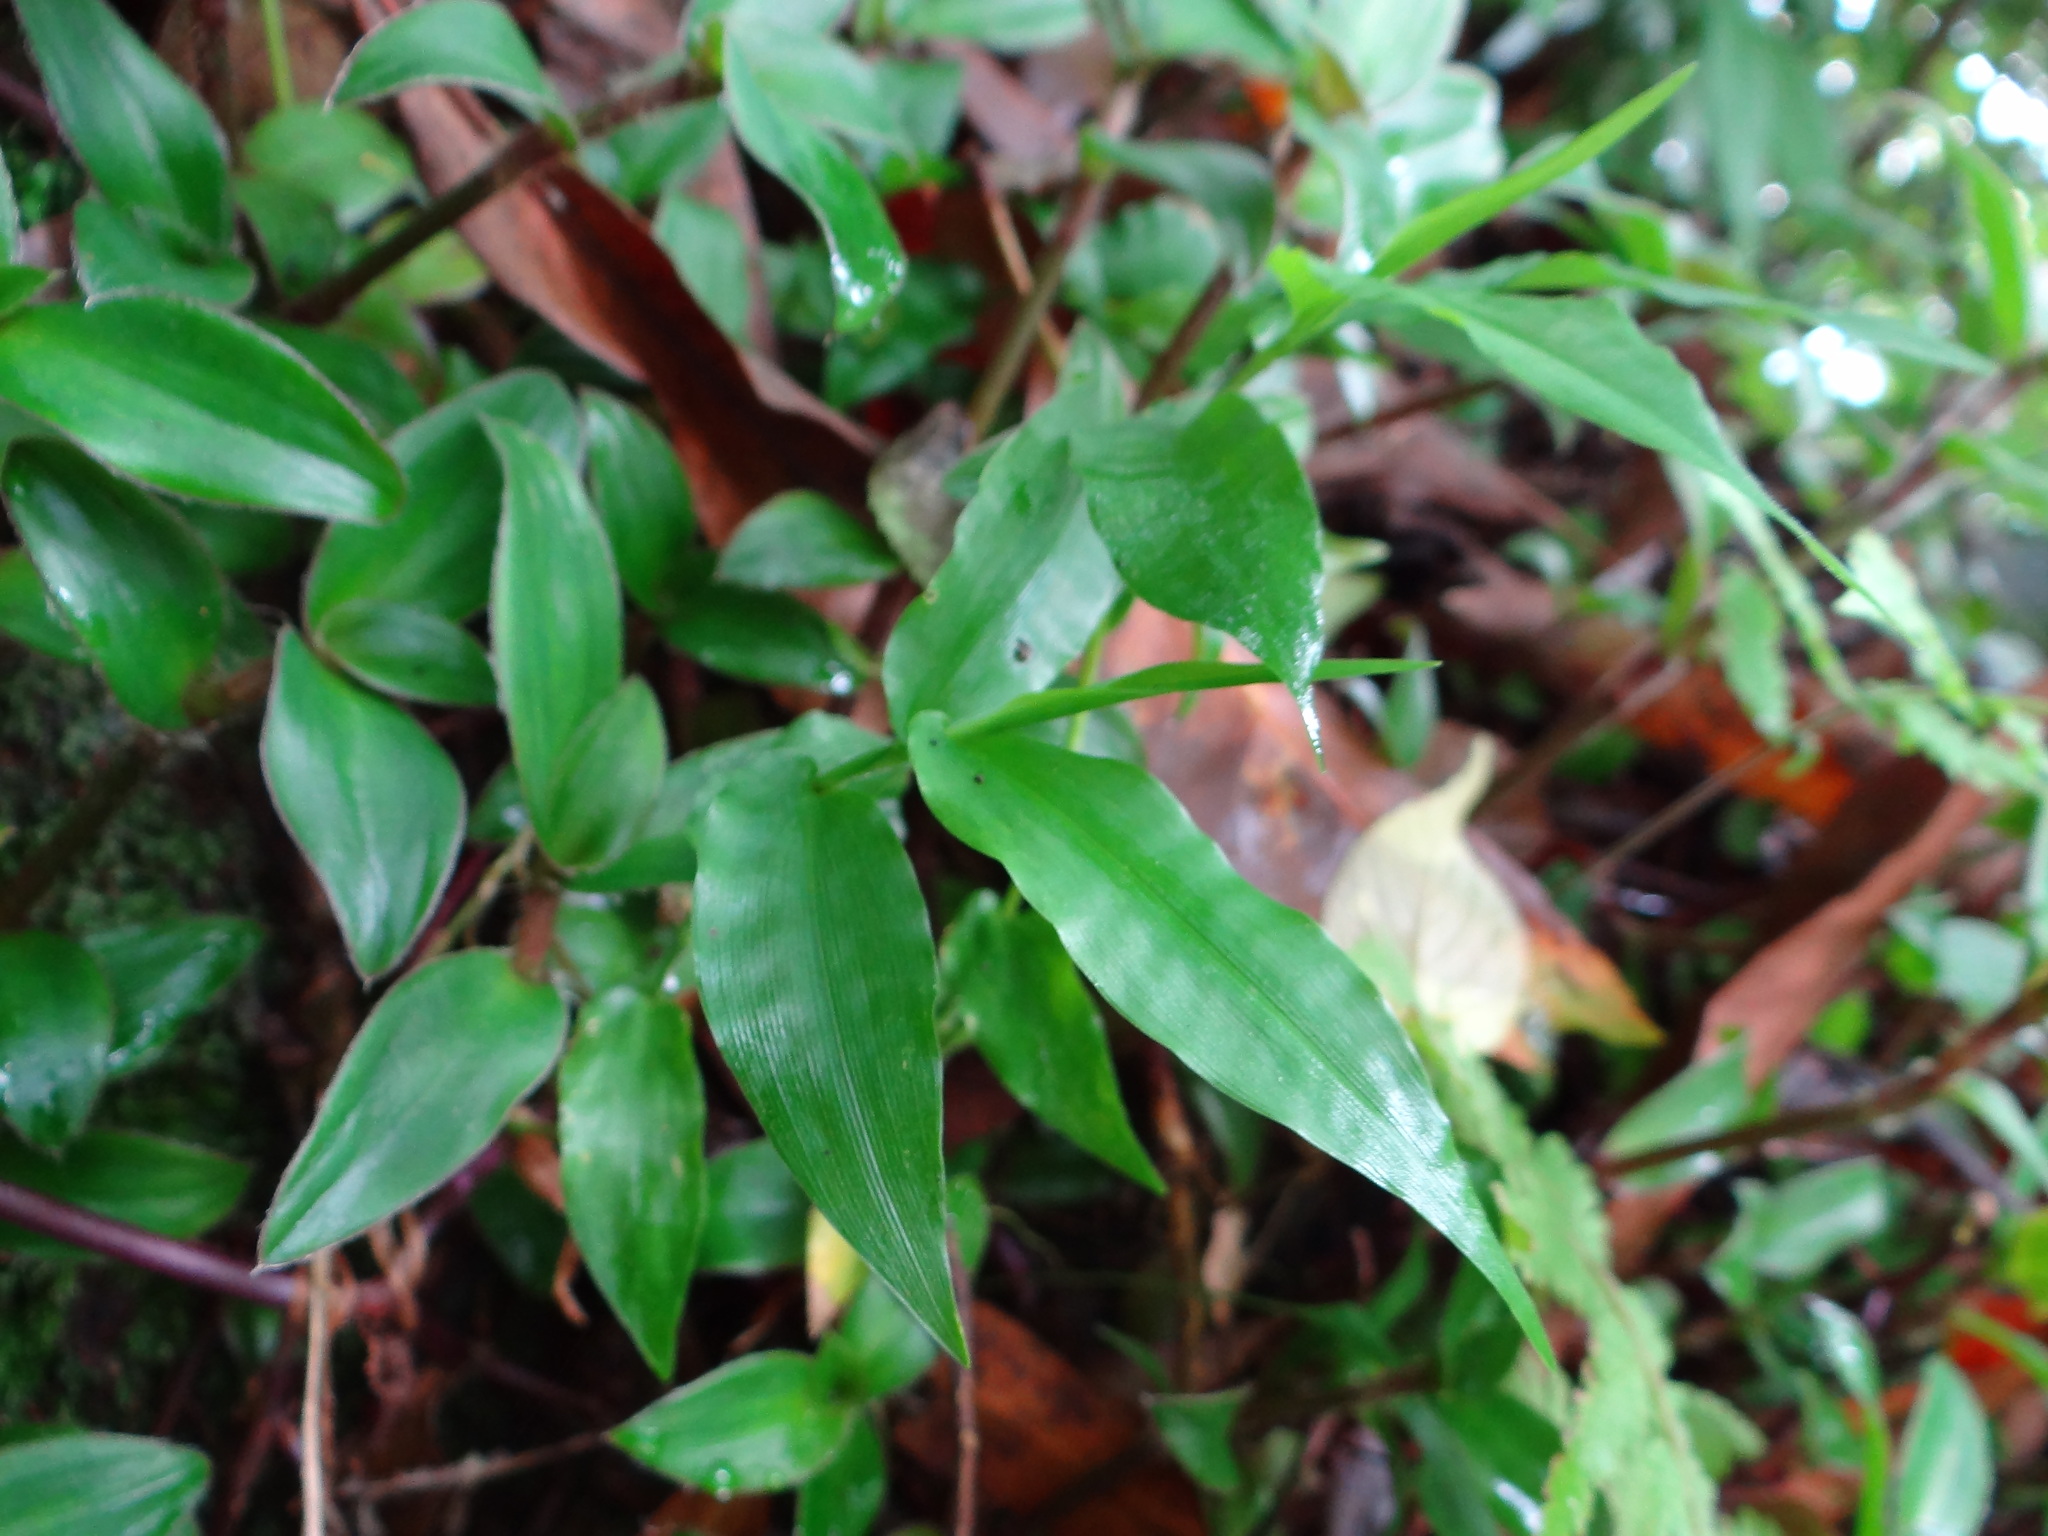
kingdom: Plantae
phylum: Tracheophyta
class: Liliopsida
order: Poales
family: Poaceae
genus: Oplismenus
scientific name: Oplismenus compositus
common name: Running mountain grass
